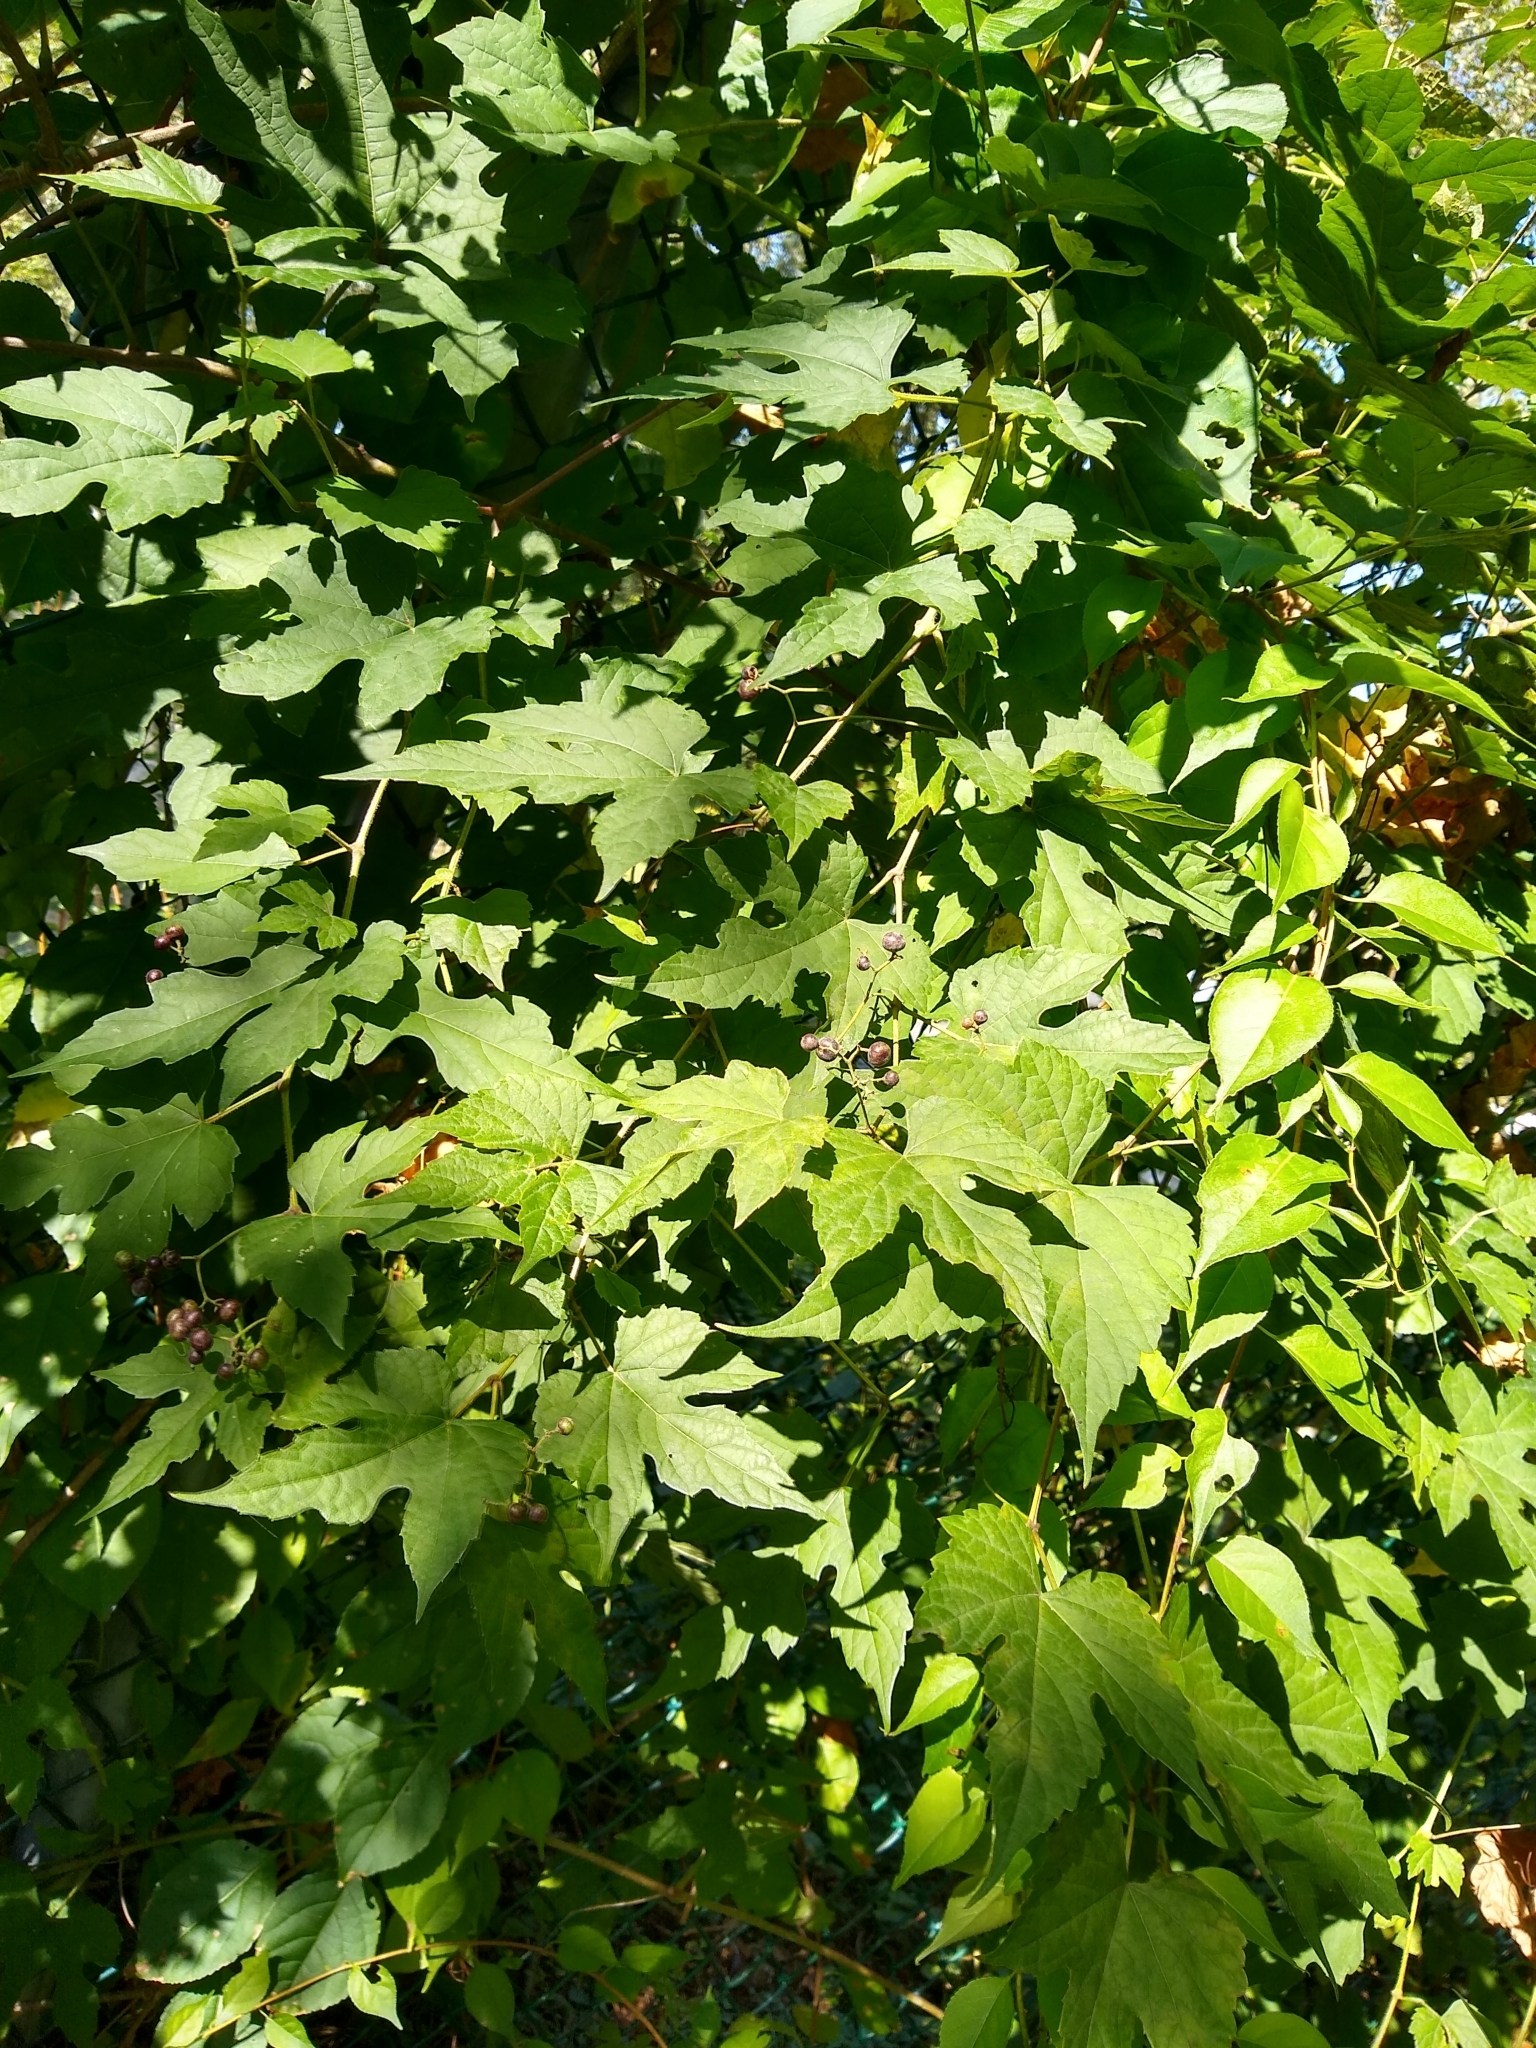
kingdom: Plantae
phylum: Tracheophyta
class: Magnoliopsida
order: Vitales
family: Vitaceae
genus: Ampelopsis
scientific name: Ampelopsis glandulosa
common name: Amur peppervine
